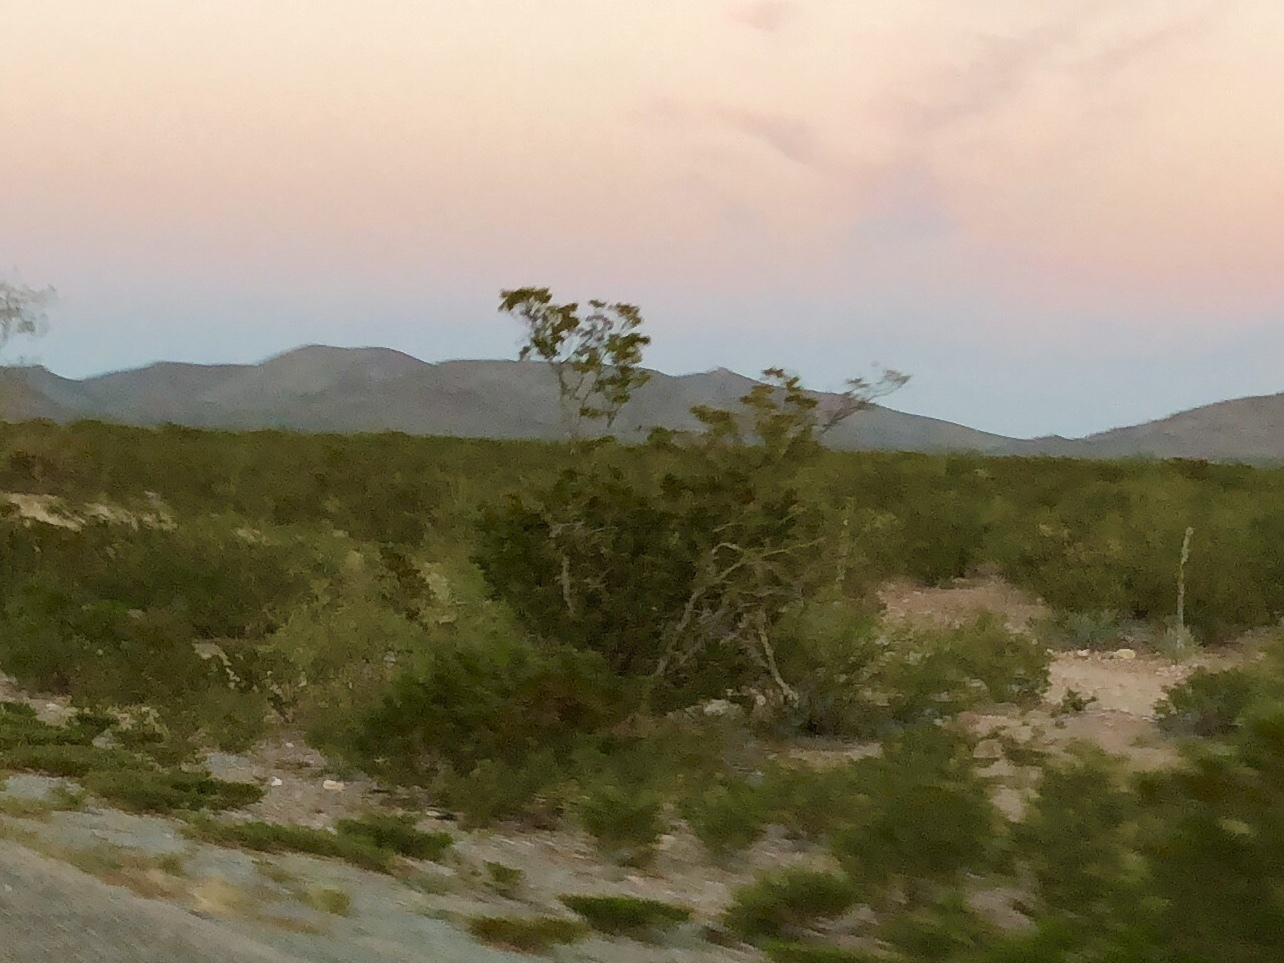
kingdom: Plantae
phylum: Tracheophyta
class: Magnoliopsida
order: Zygophyllales
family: Zygophyllaceae
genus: Larrea
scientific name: Larrea tridentata
